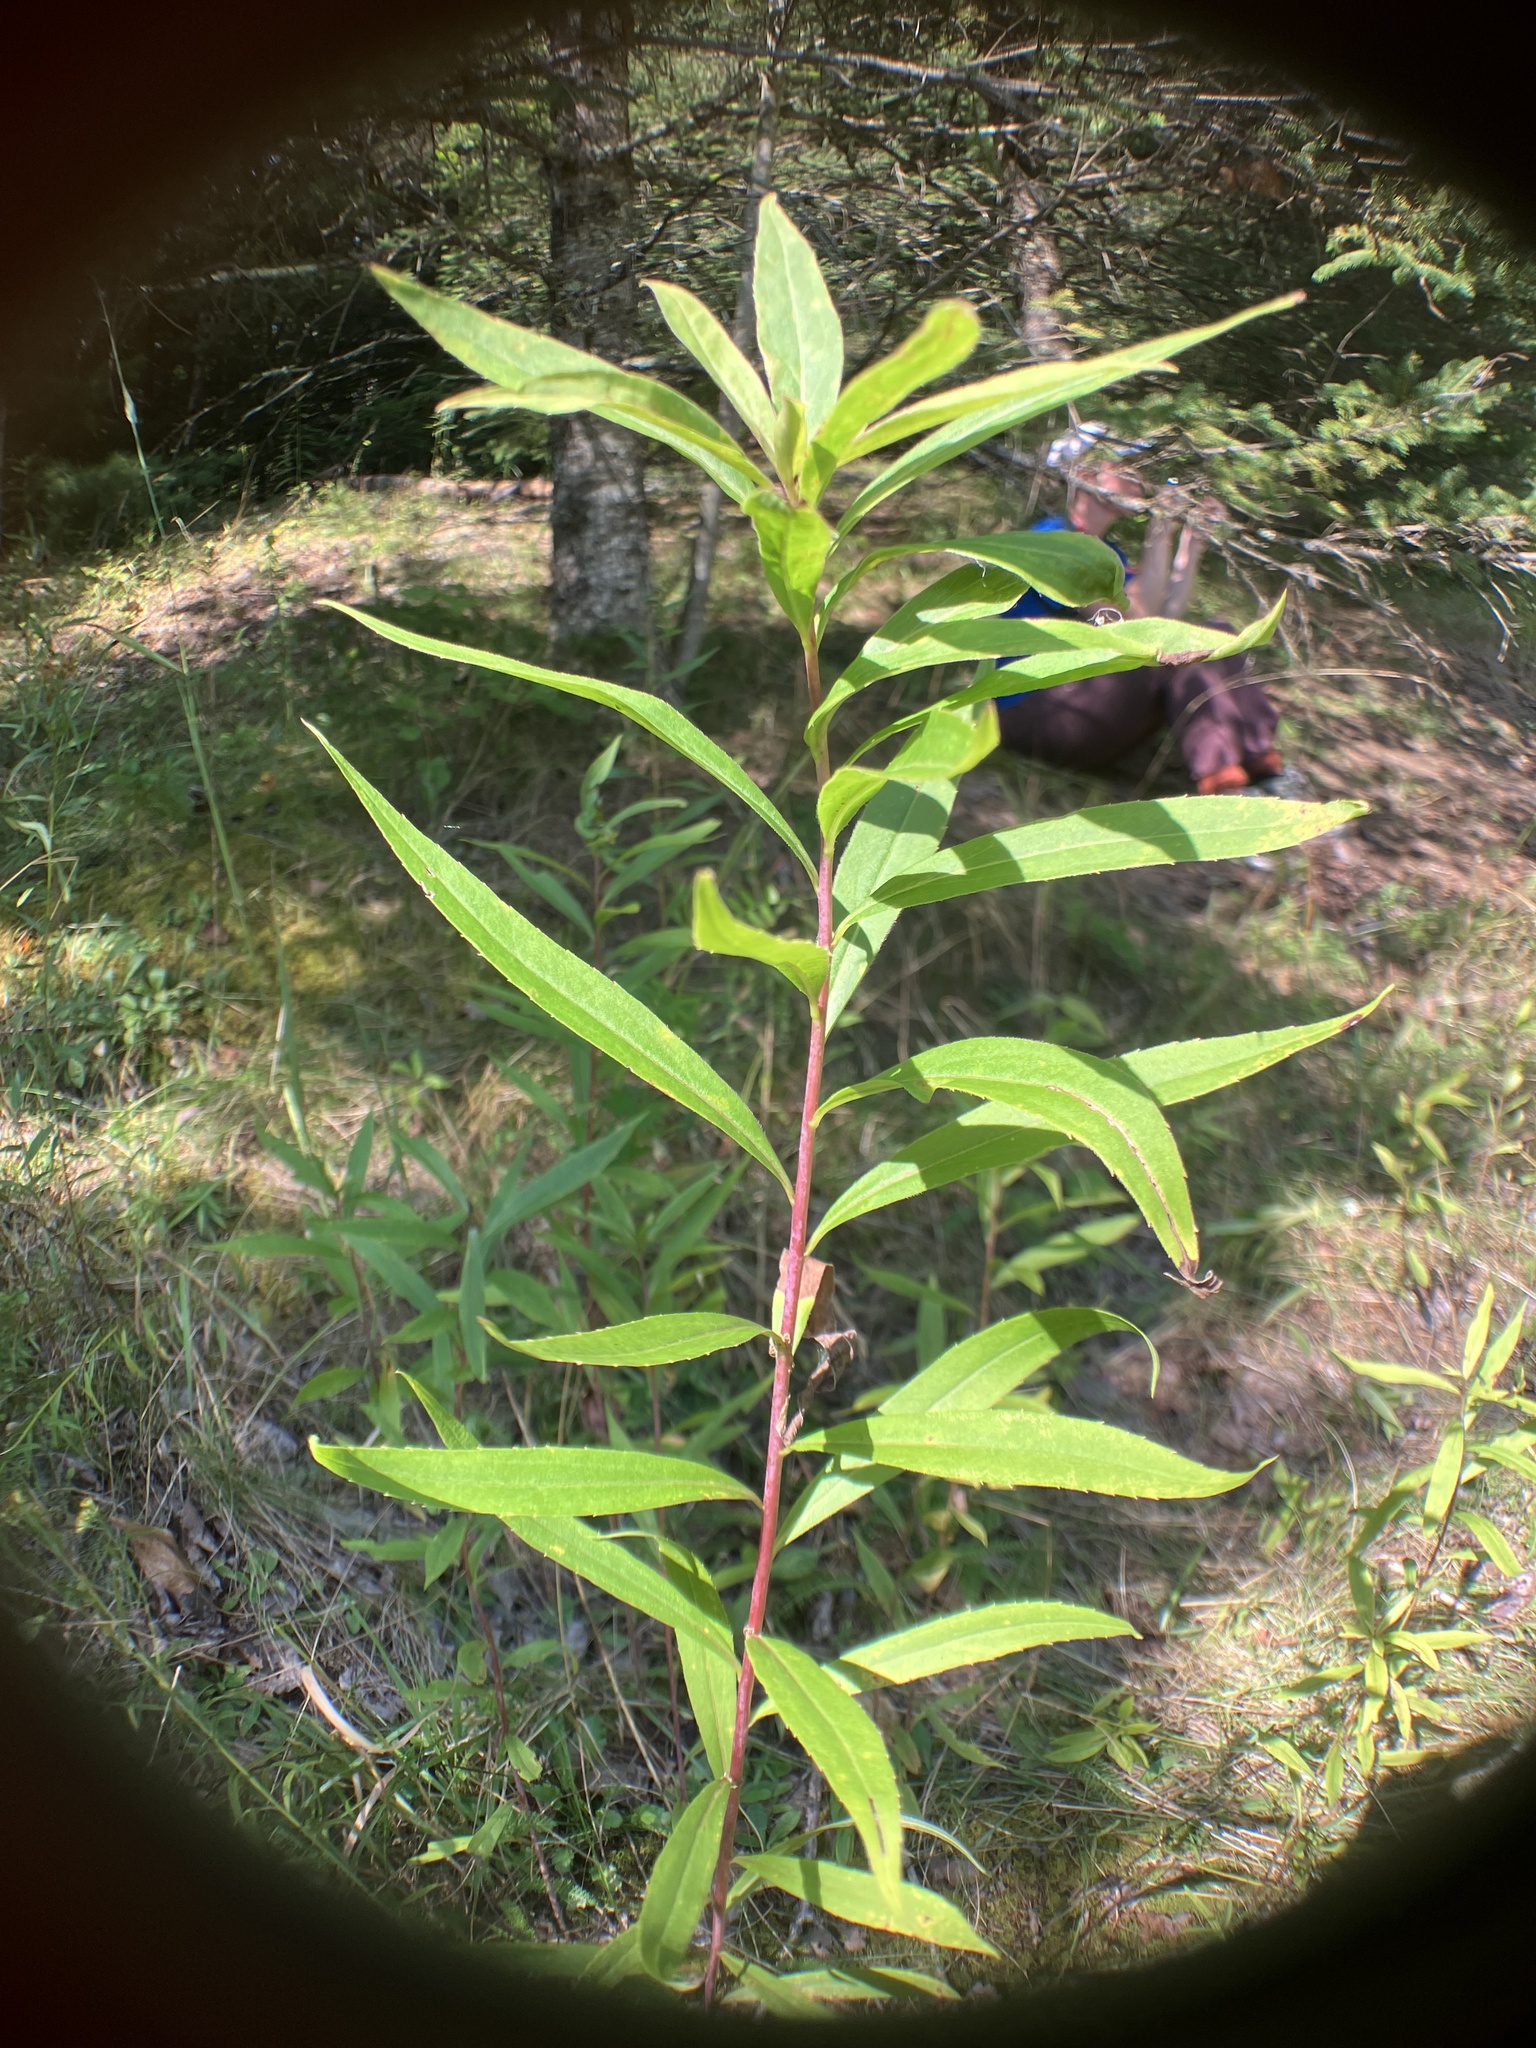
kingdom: Plantae
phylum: Tracheophyta
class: Magnoliopsida
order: Asterales
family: Asteraceae
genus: Solidago
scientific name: Solidago gigantea
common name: Giant goldenrod
